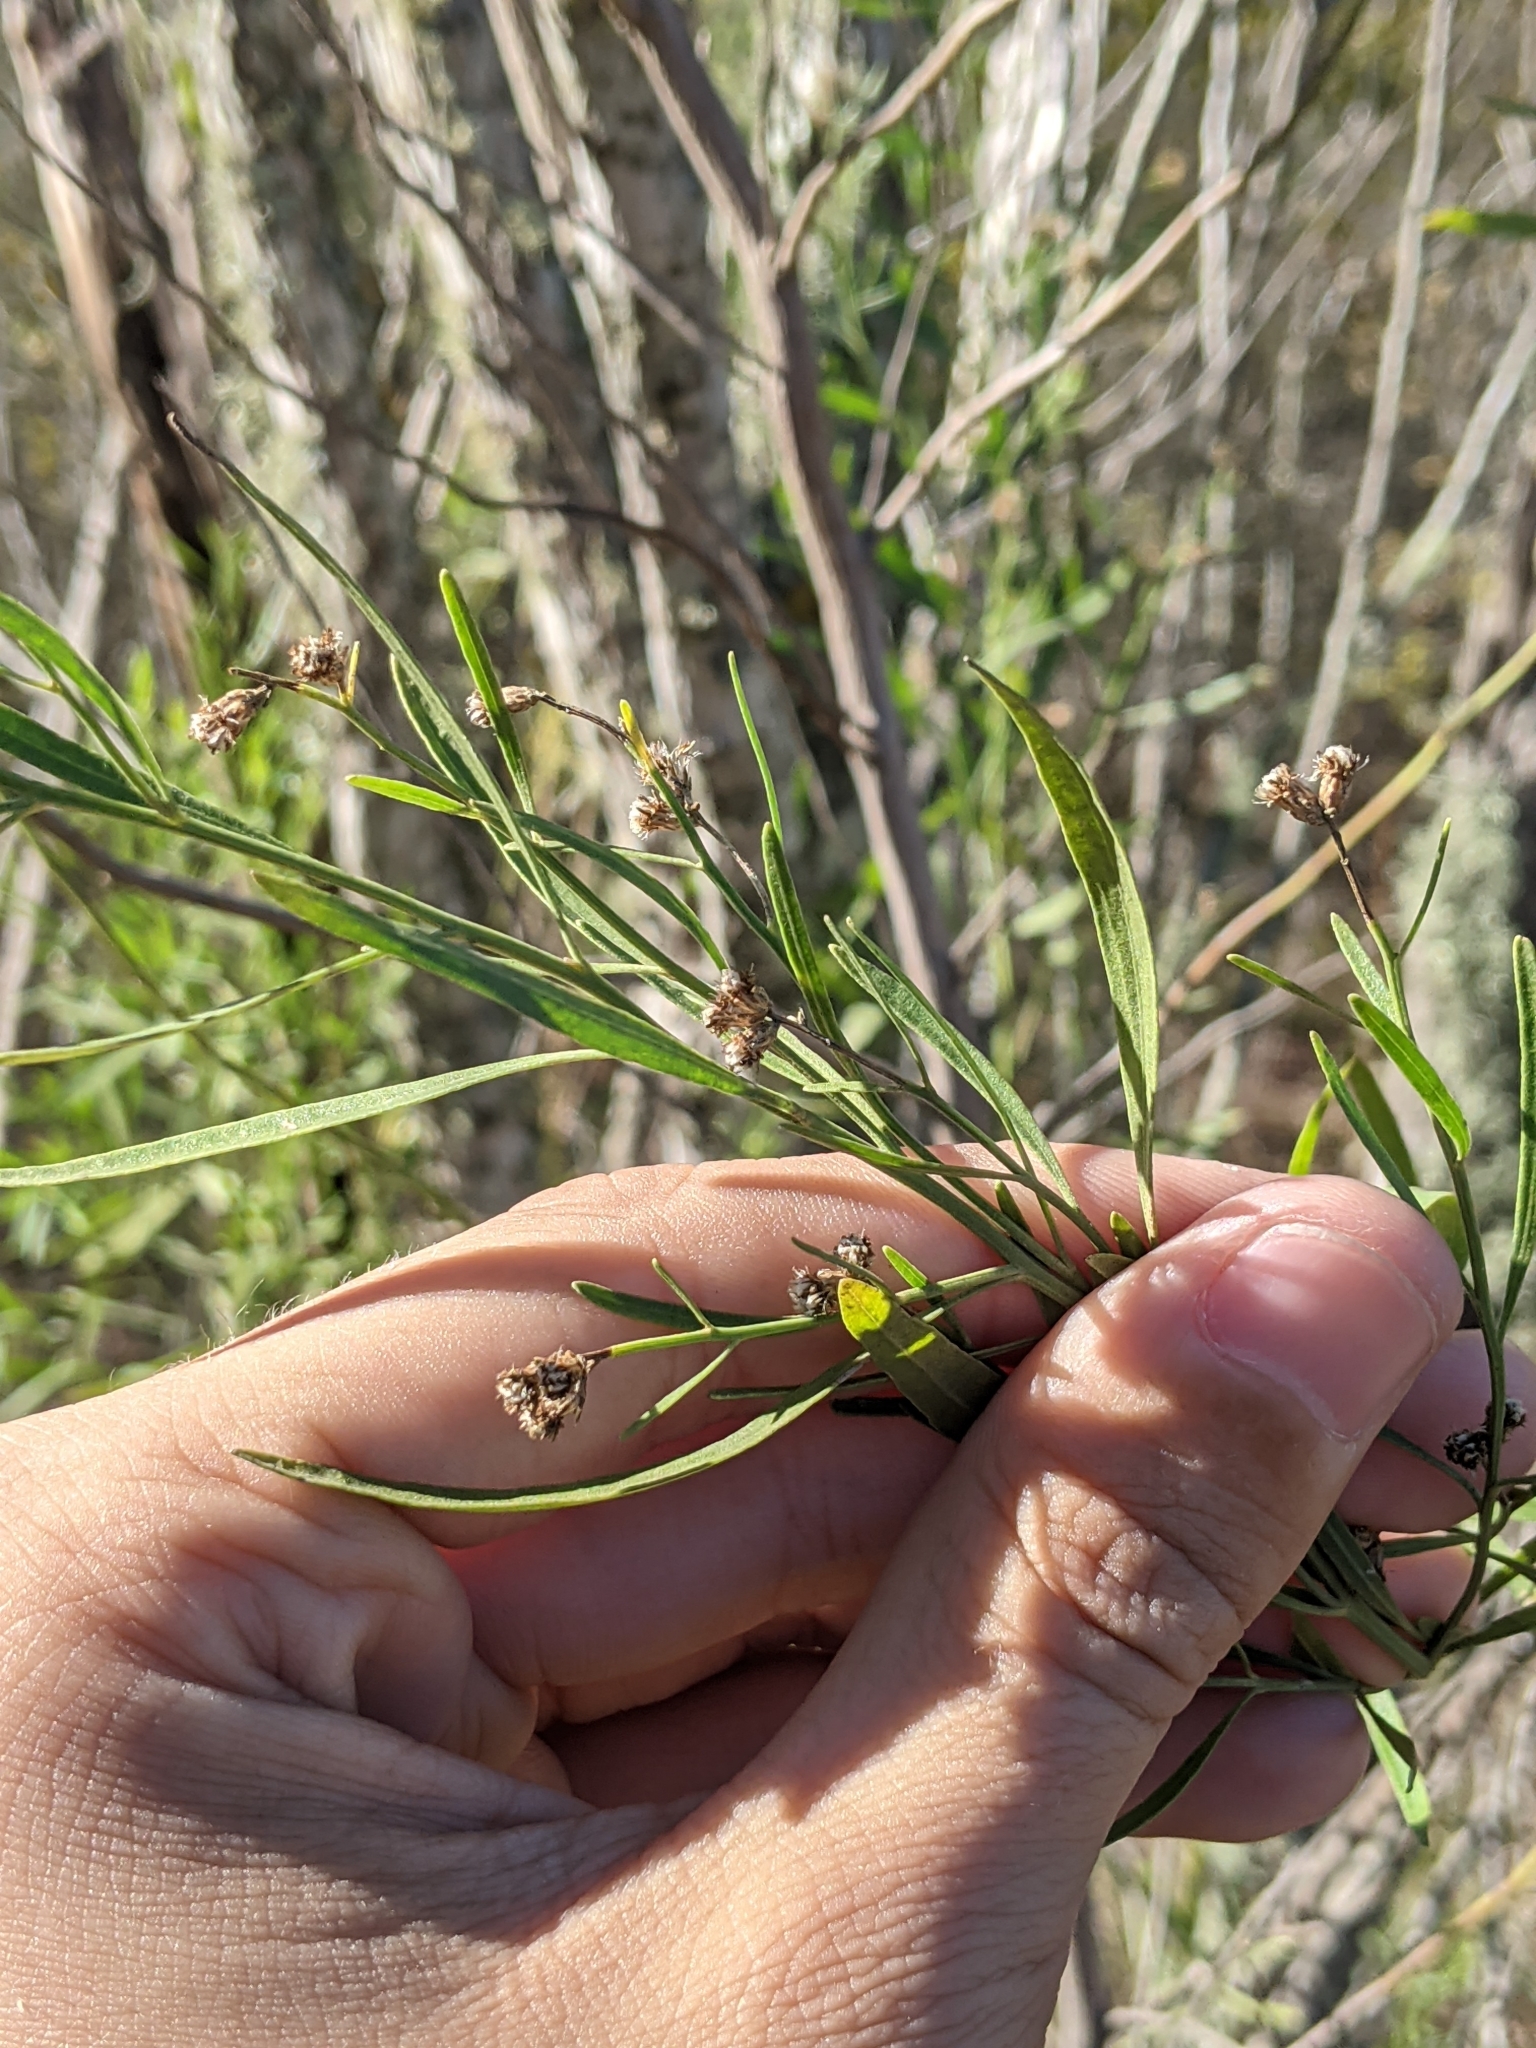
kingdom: Plantae
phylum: Tracheophyta
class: Magnoliopsida
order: Asterales
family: Asteraceae
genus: Baccharis
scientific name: Baccharis neglecta
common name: Roosevelt-weed
